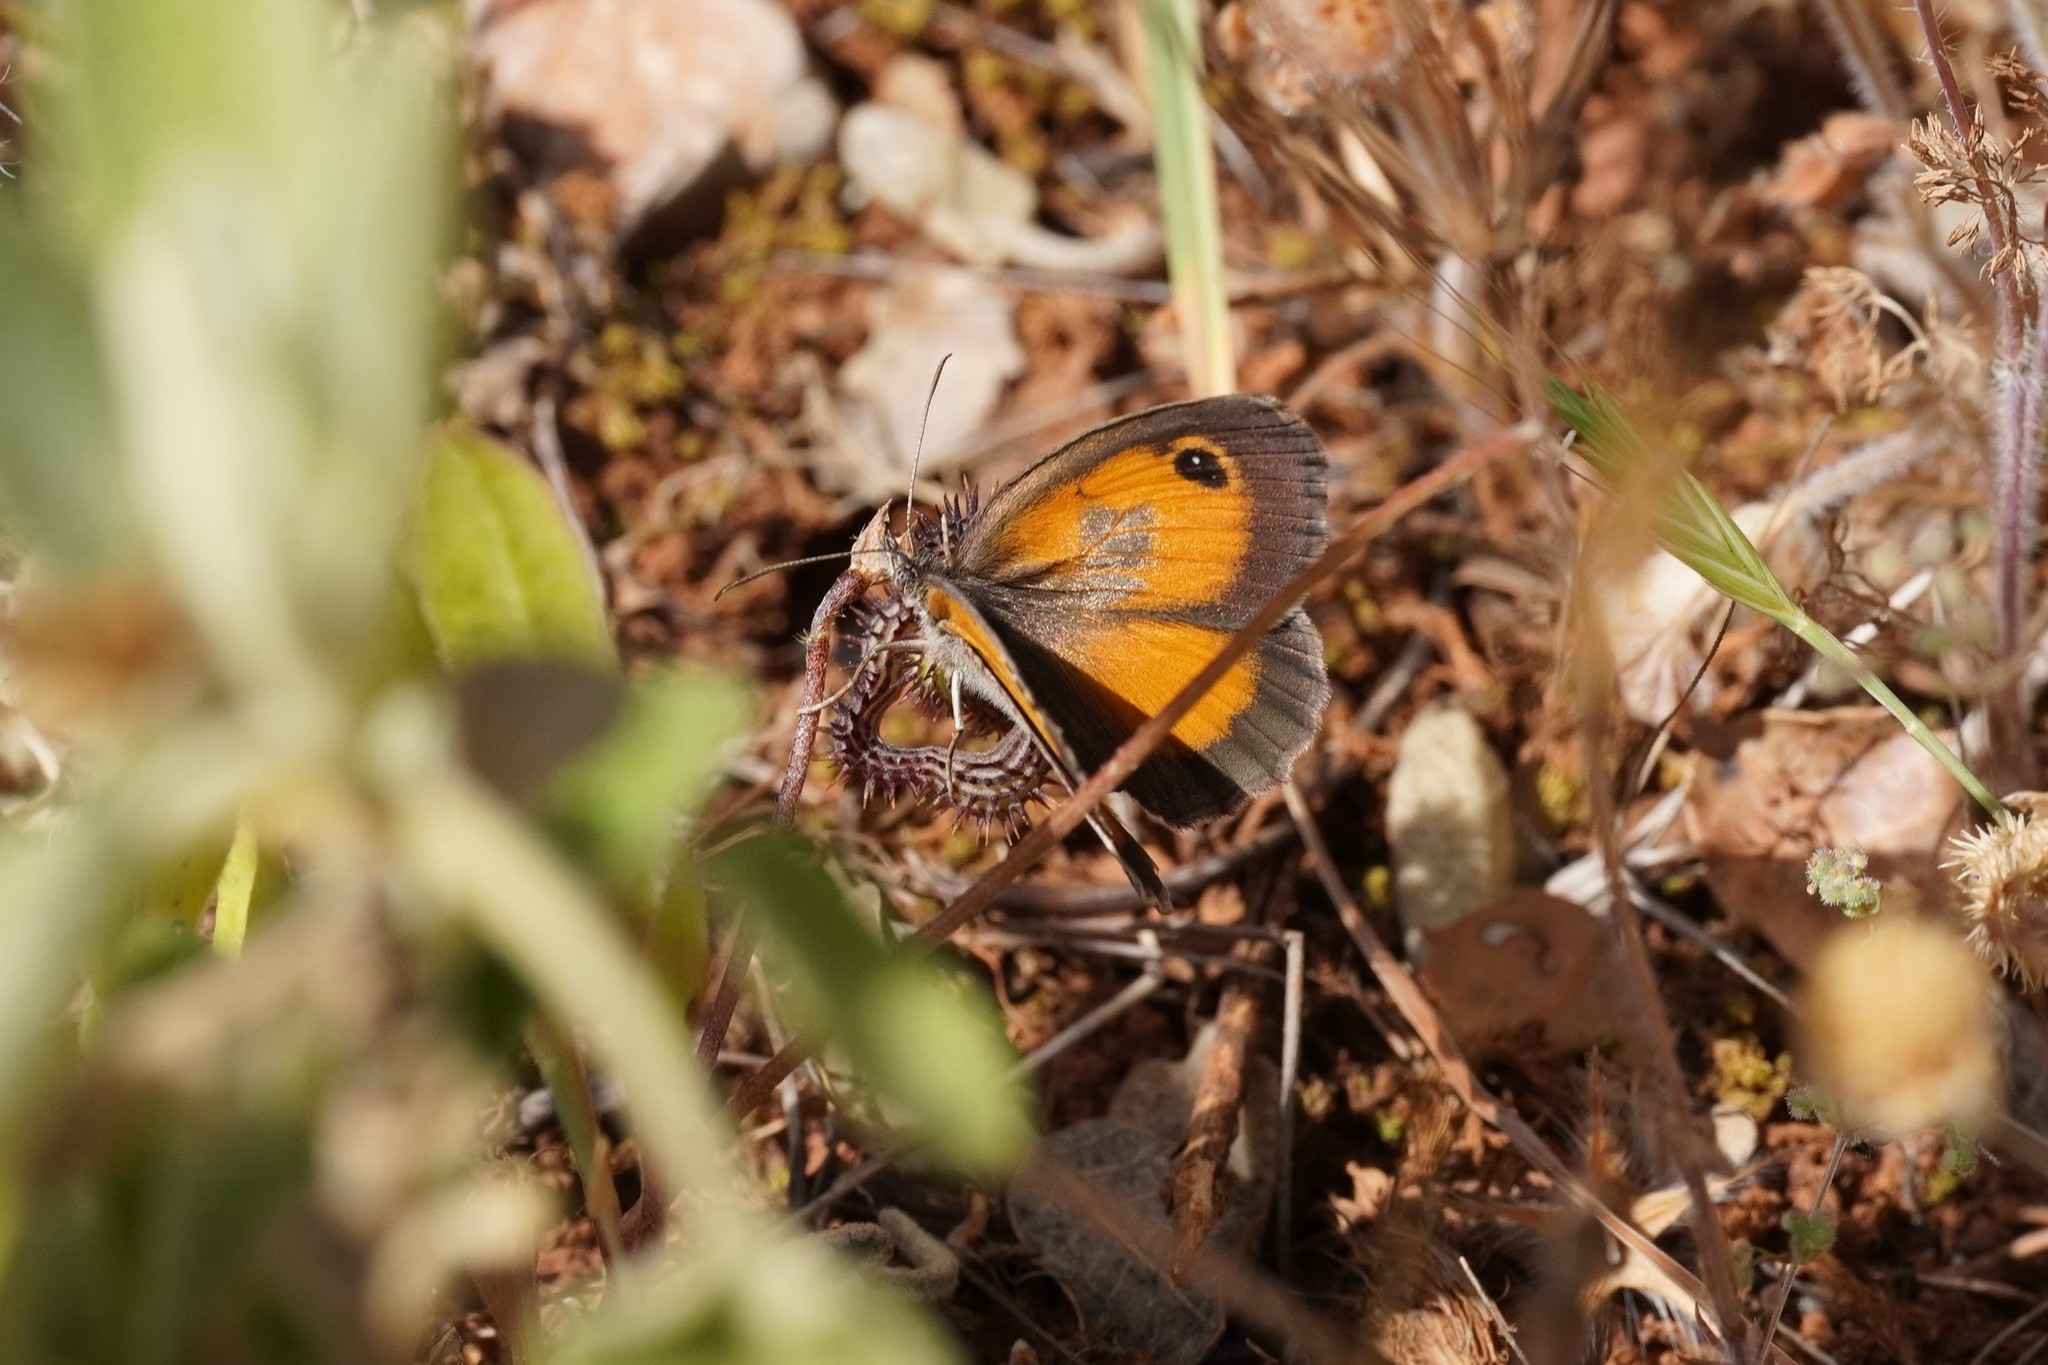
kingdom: Animalia
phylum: Arthropoda
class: Insecta
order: Lepidoptera
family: Nymphalidae
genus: Pyronia
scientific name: Pyronia cecilia
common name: Southern gatekeeper
